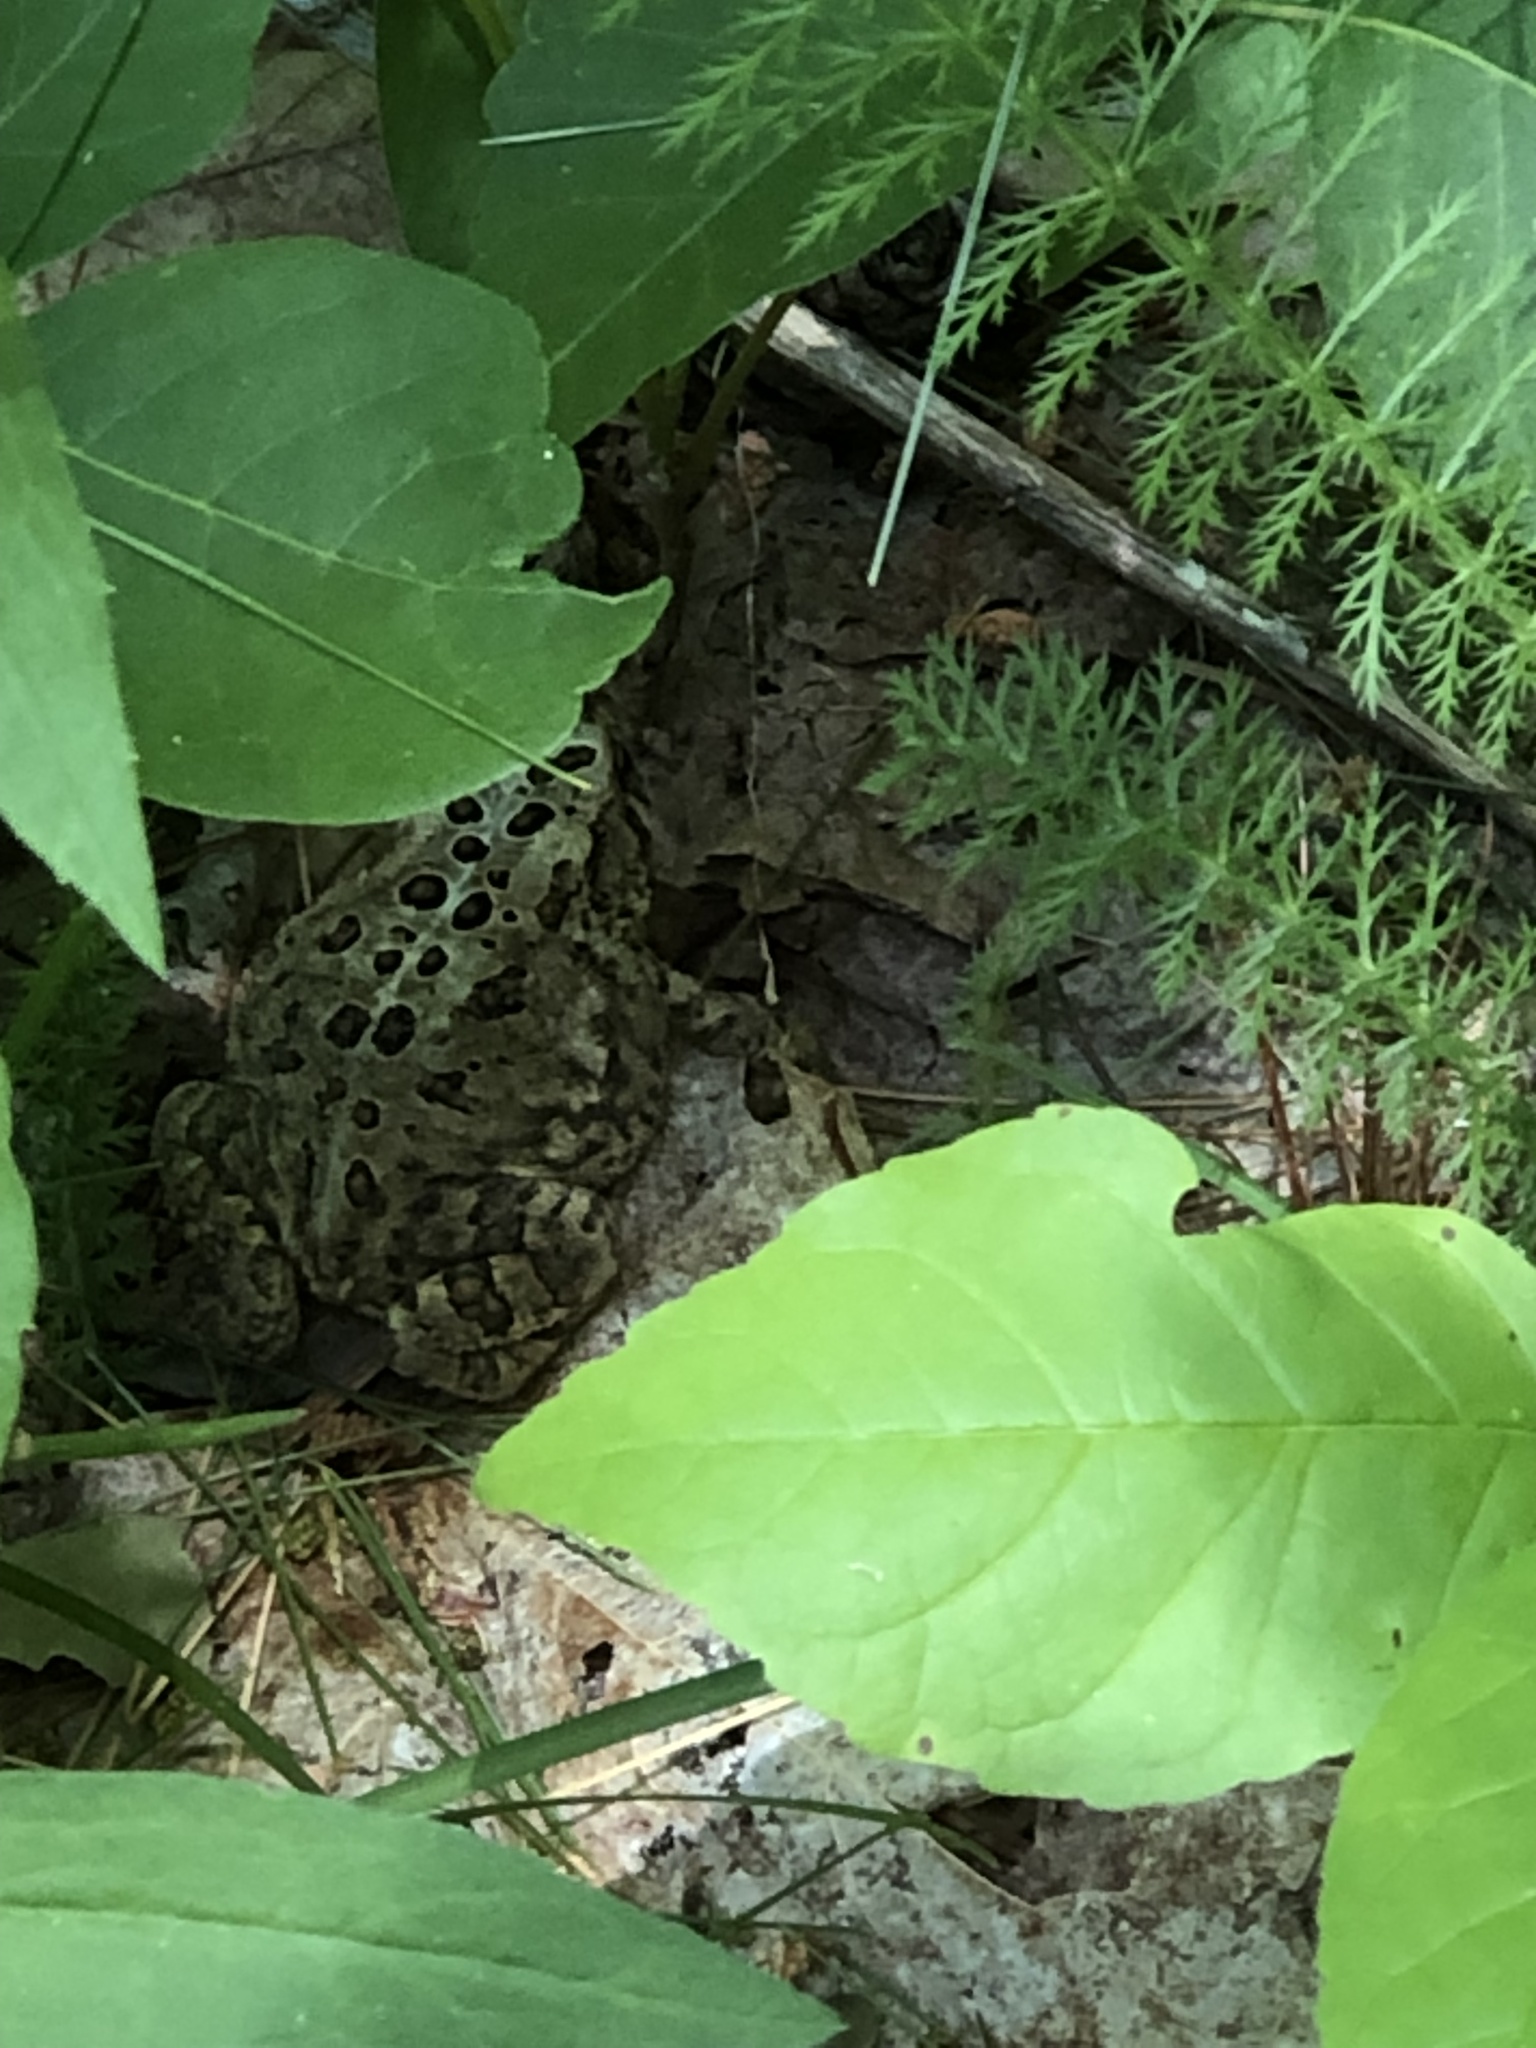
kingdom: Animalia
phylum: Chordata
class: Amphibia
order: Anura
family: Bufonidae
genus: Anaxyrus
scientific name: Anaxyrus americanus
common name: American toad
